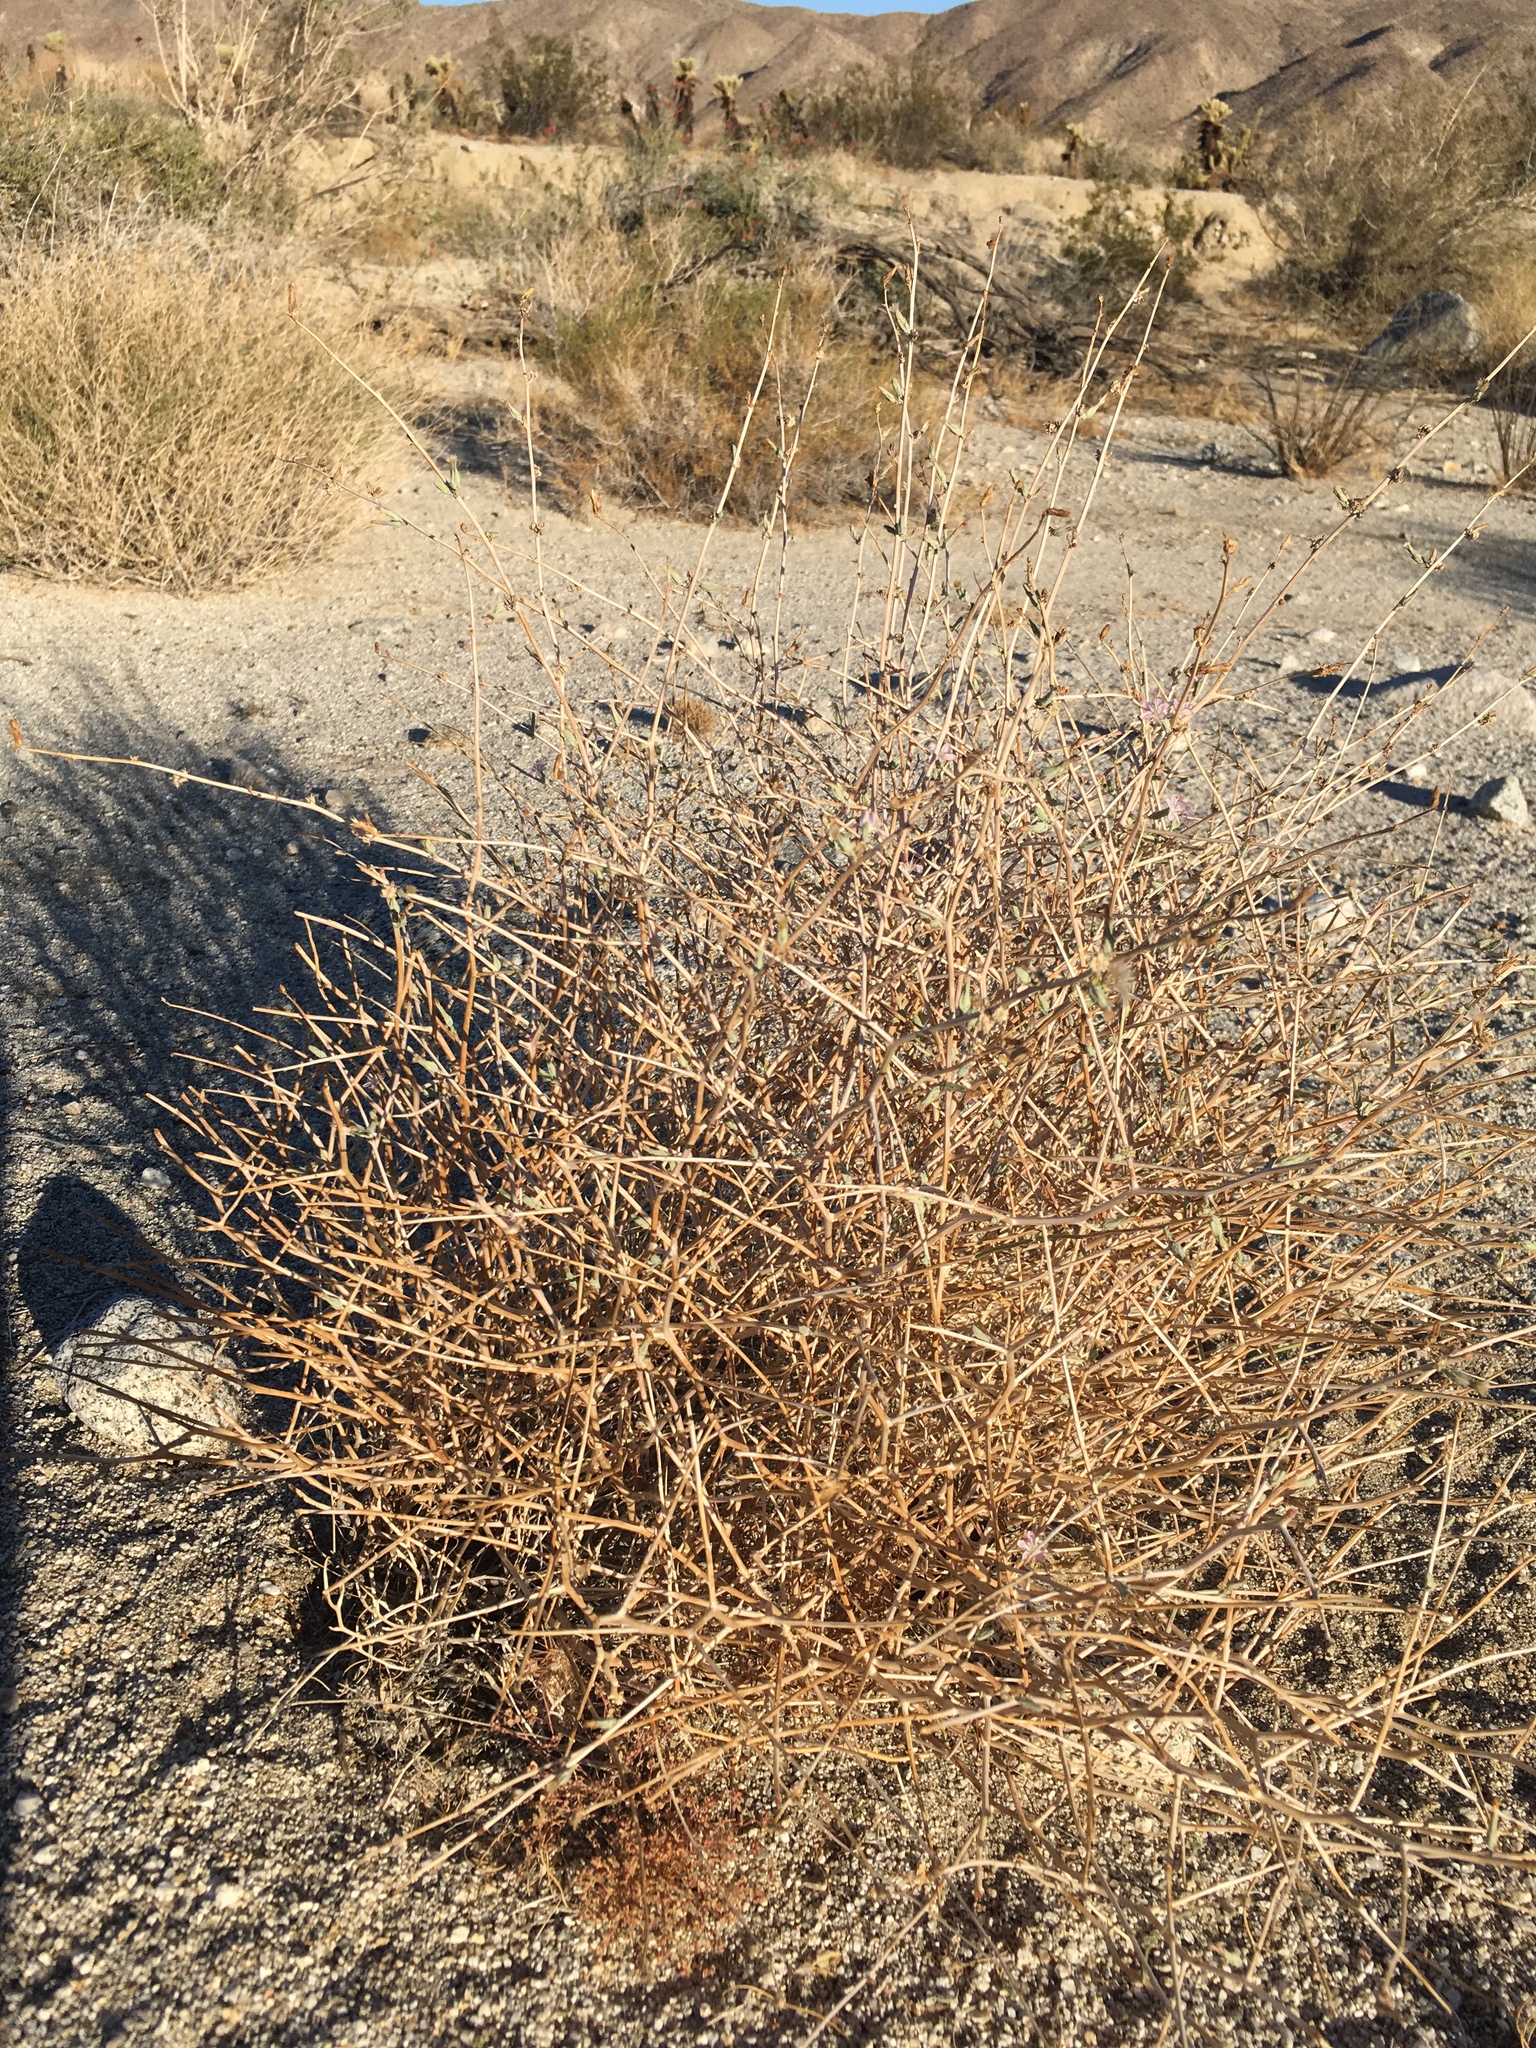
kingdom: Plantae
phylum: Tracheophyta
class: Magnoliopsida
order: Asterales
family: Asteraceae
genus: Stephanomeria
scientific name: Stephanomeria pauciflora
